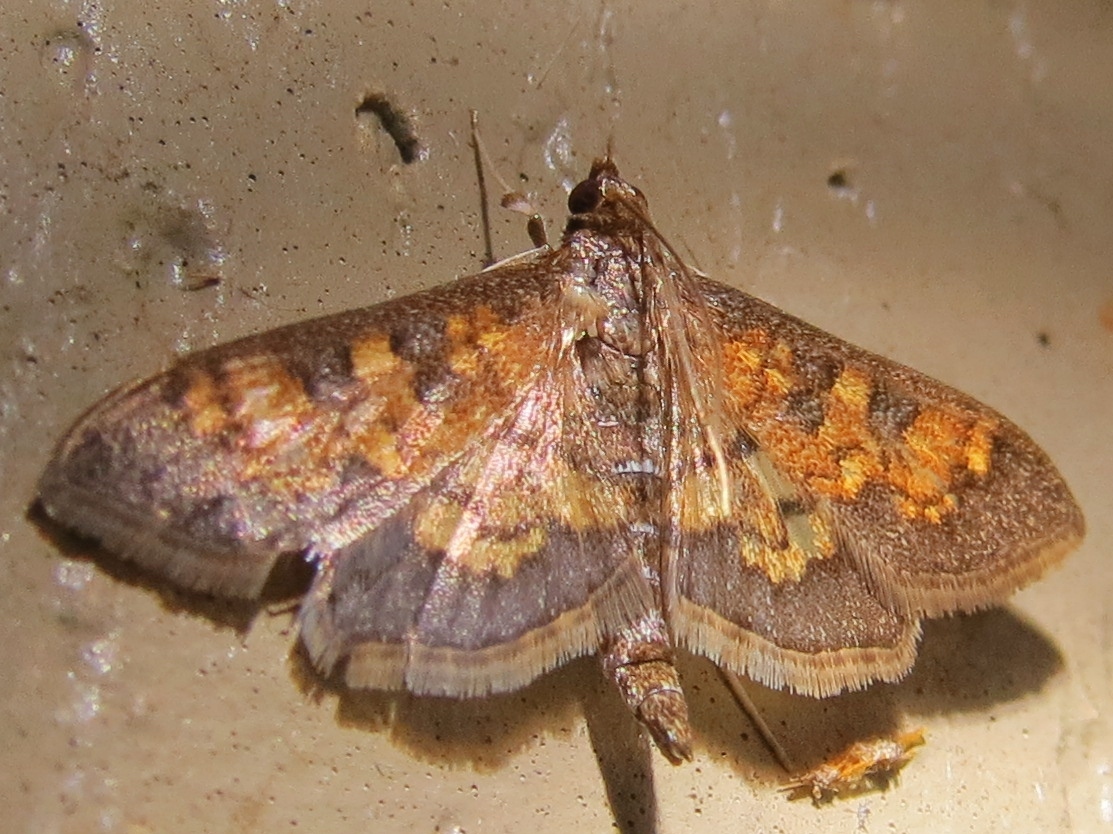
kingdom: Animalia
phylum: Arthropoda
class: Insecta
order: Lepidoptera
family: Crambidae
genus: Epipagis
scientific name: Epipagis adipaloides
